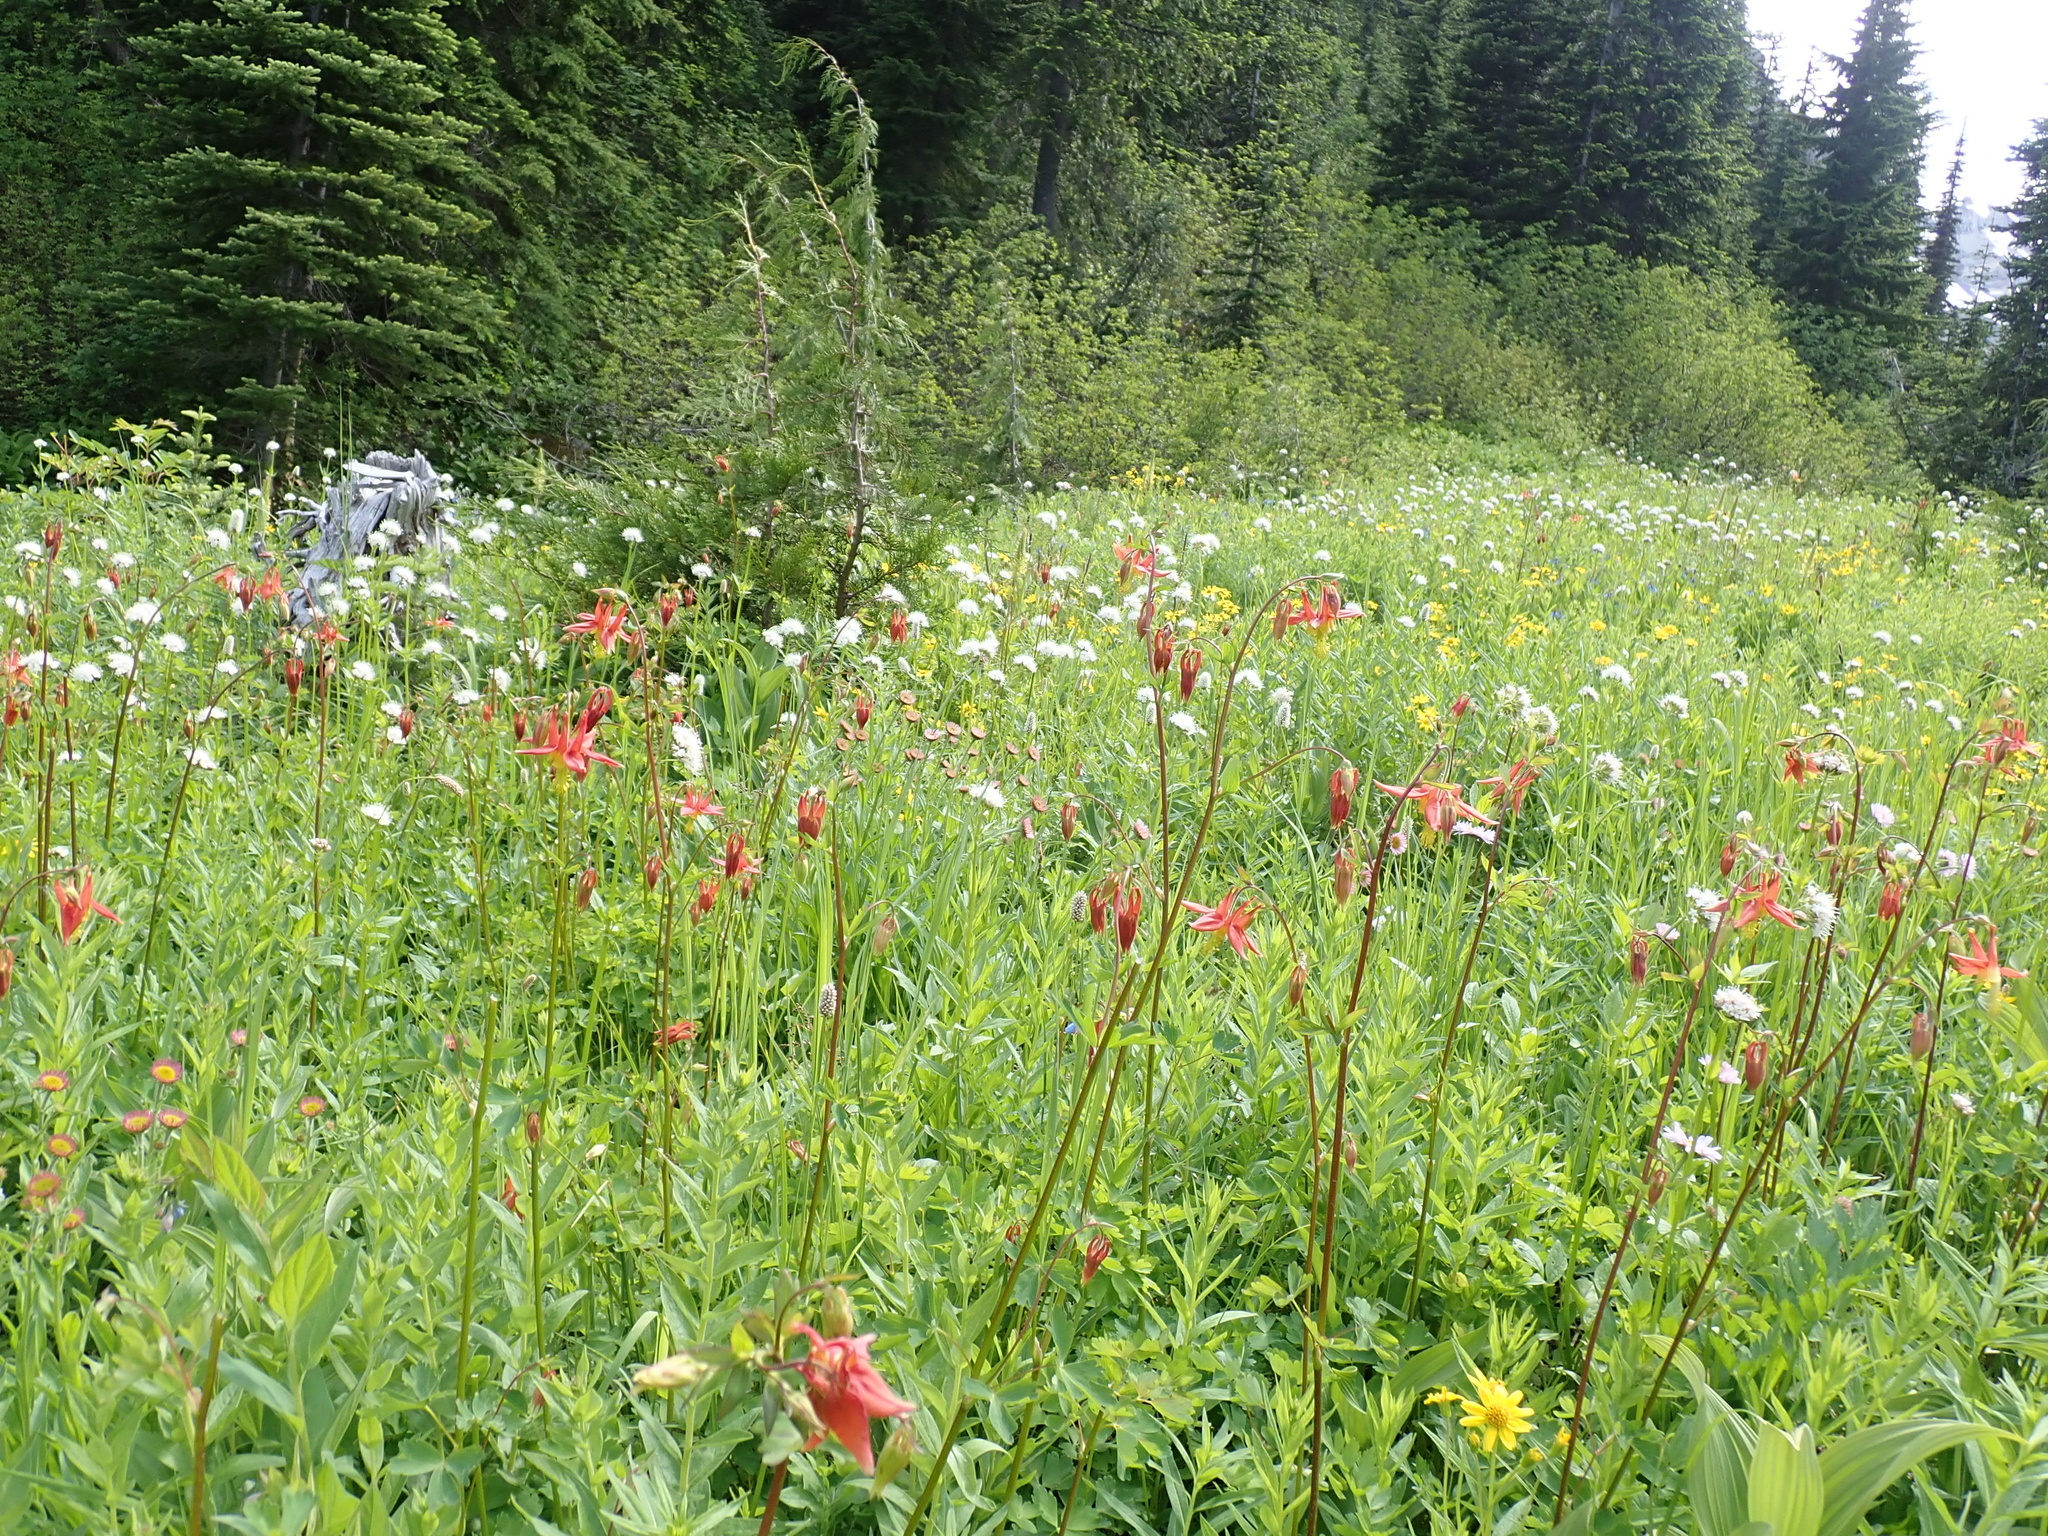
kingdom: Plantae
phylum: Tracheophyta
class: Magnoliopsida
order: Ranunculales
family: Ranunculaceae
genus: Aquilegia
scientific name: Aquilegia formosa
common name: Sitka columbine
